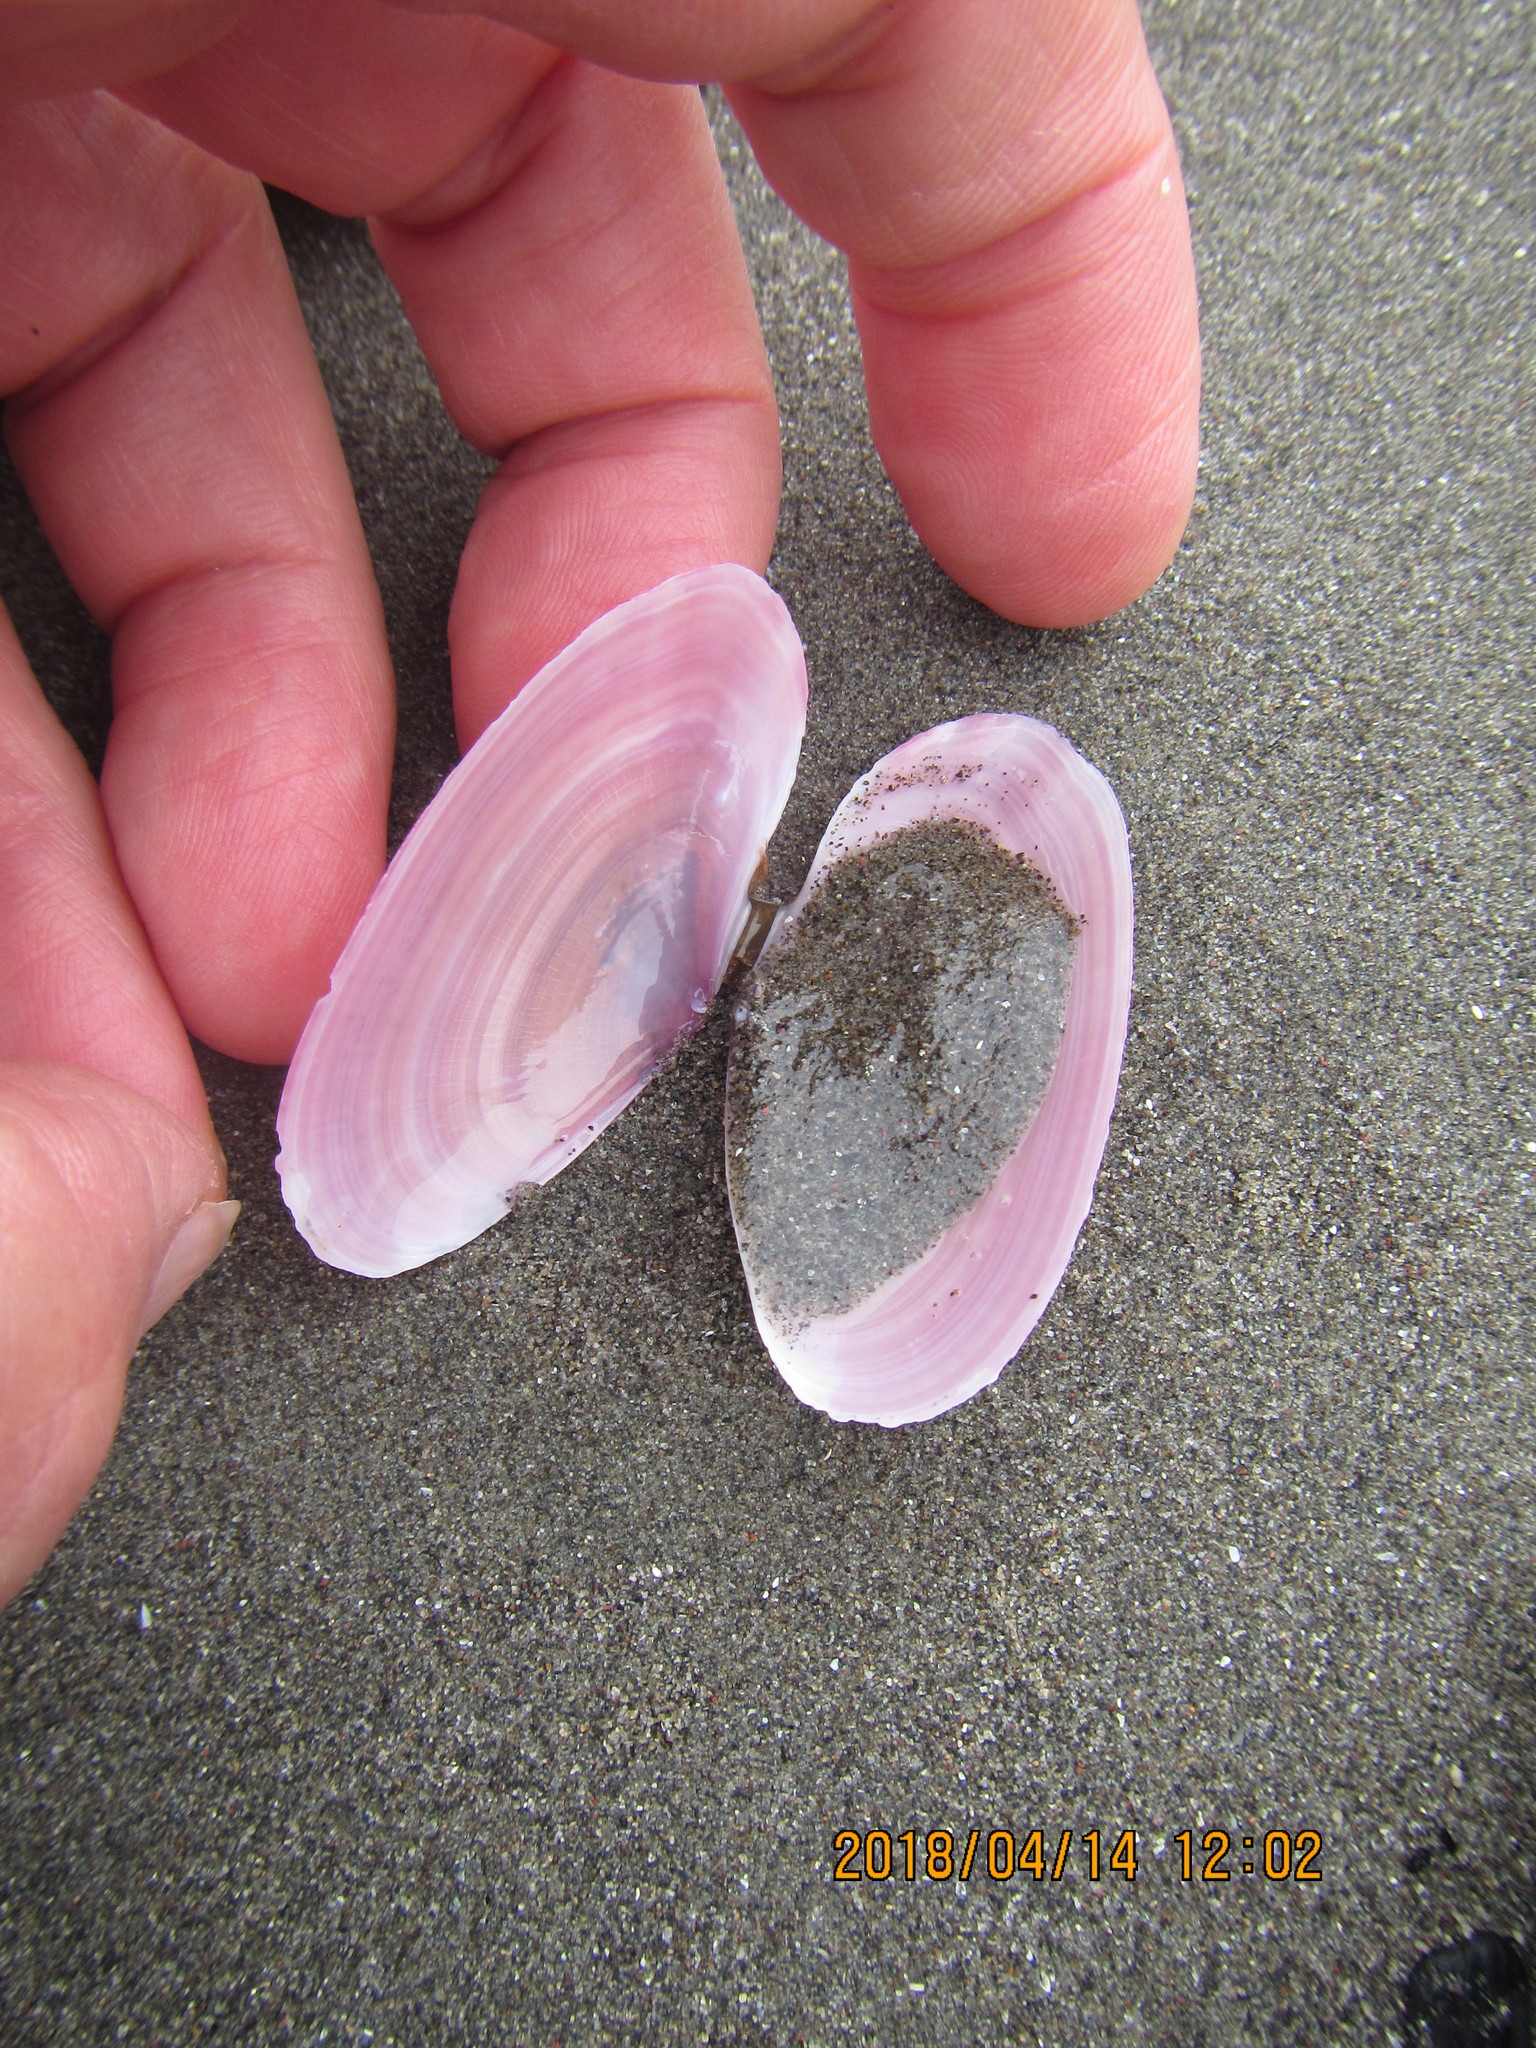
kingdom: Animalia
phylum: Mollusca
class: Bivalvia
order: Cardiida
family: Psammobiidae
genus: Gari
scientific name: Gari lineolata
